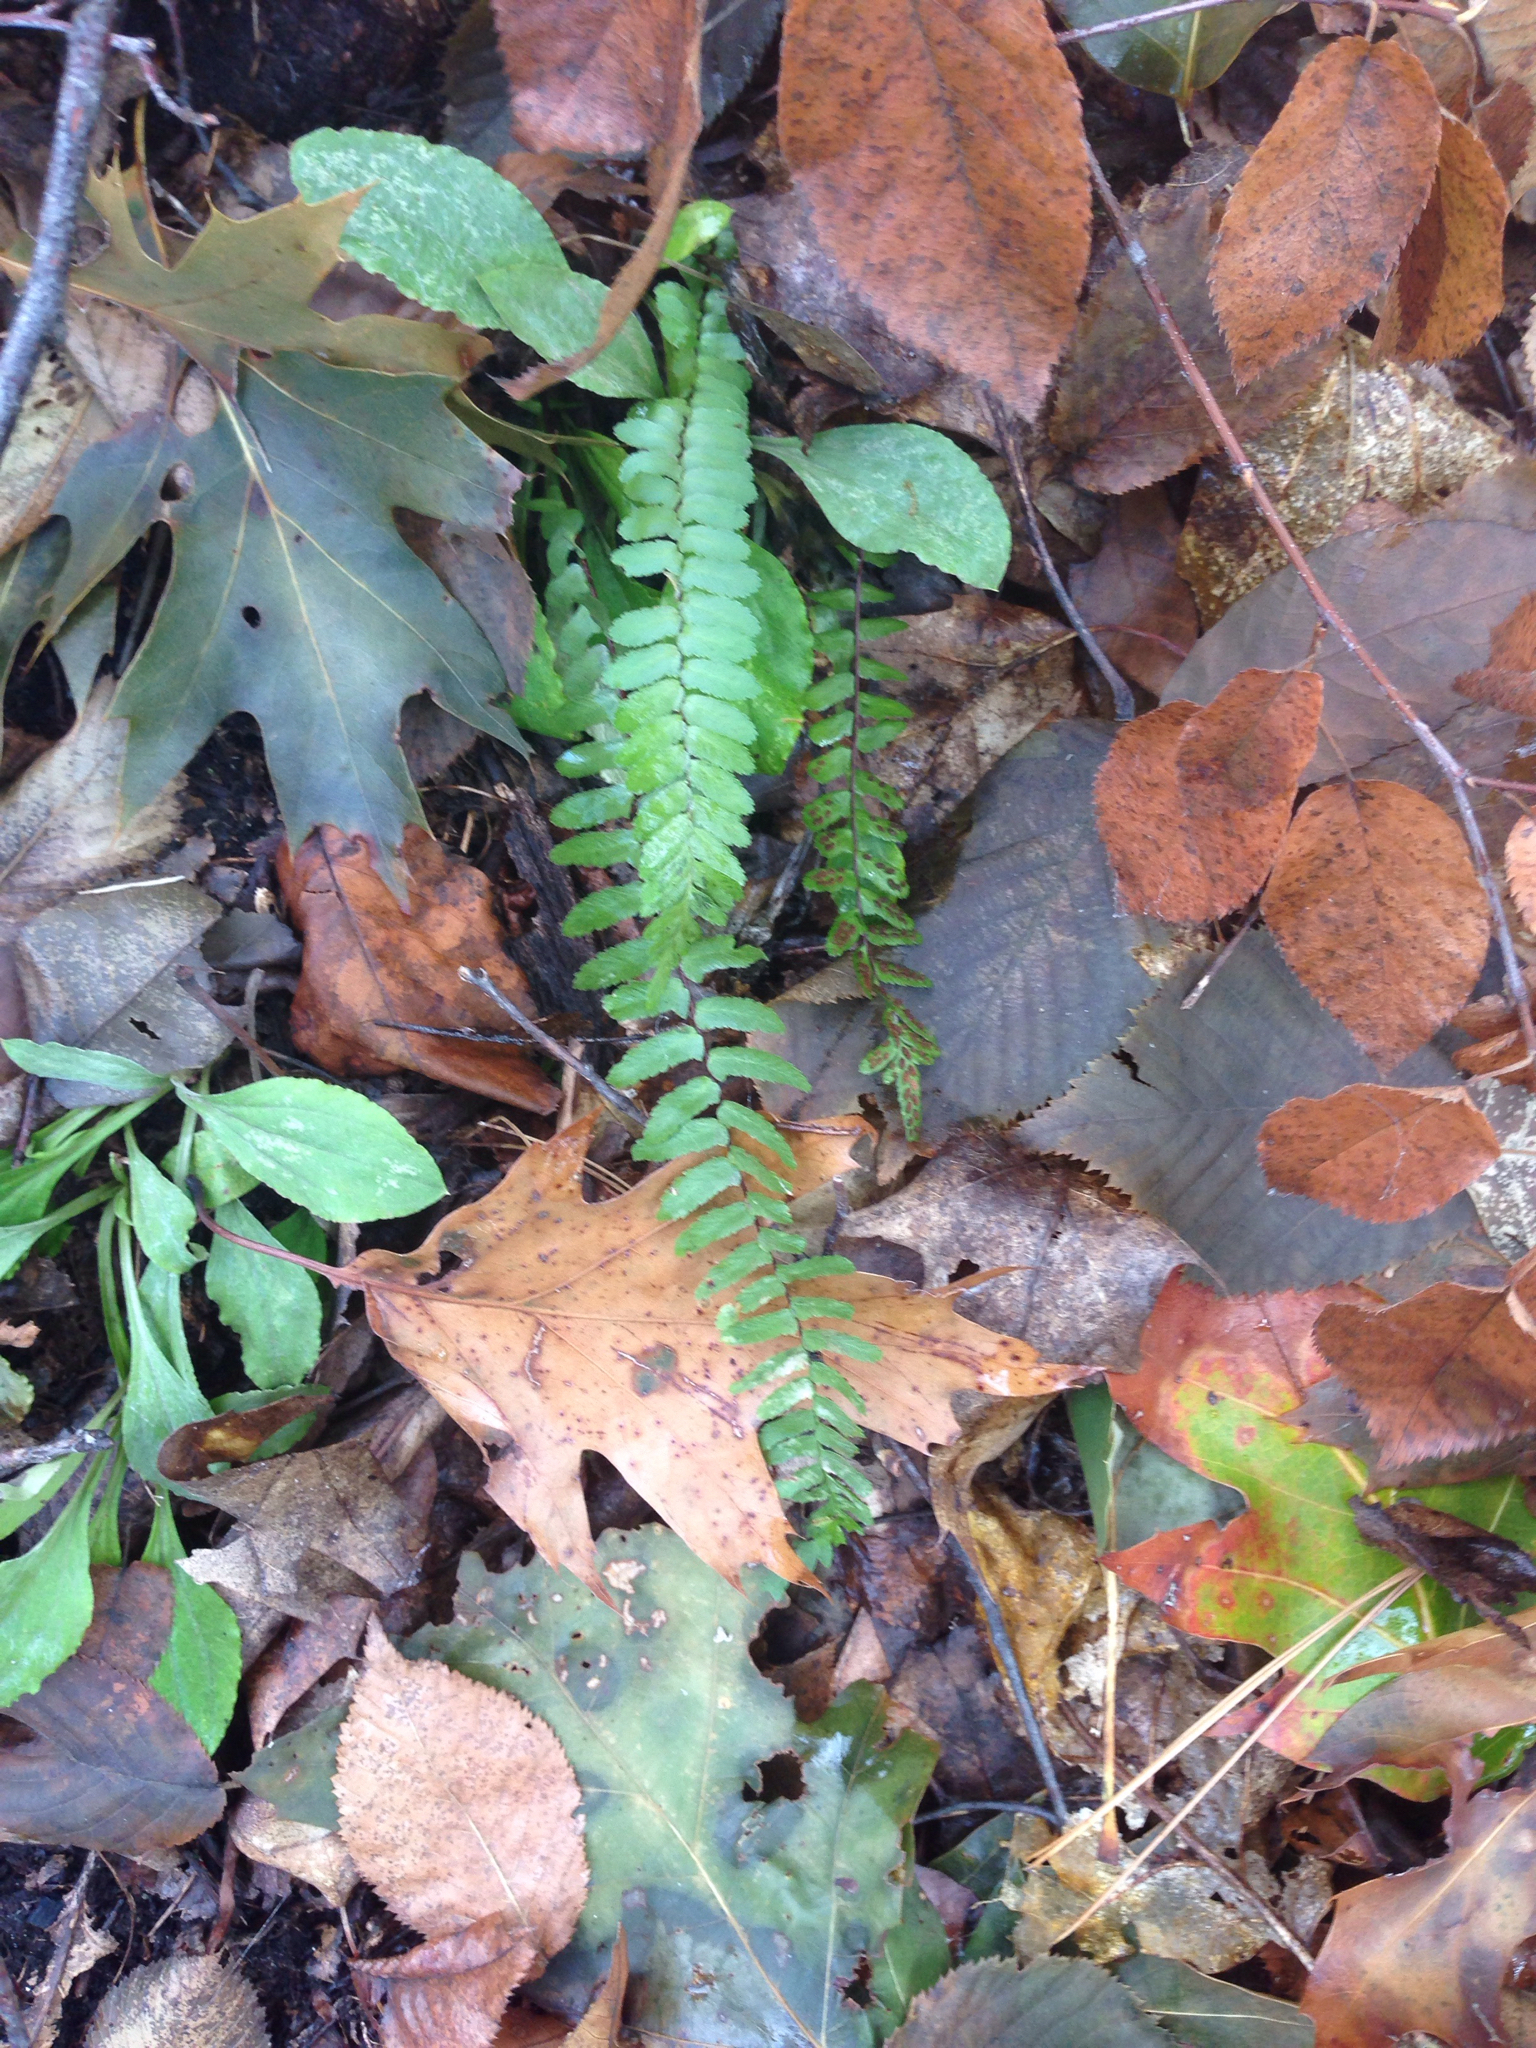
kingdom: Plantae
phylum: Tracheophyta
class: Polypodiopsida
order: Polypodiales
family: Aspleniaceae
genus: Asplenium
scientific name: Asplenium platyneuron
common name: Ebony spleenwort
